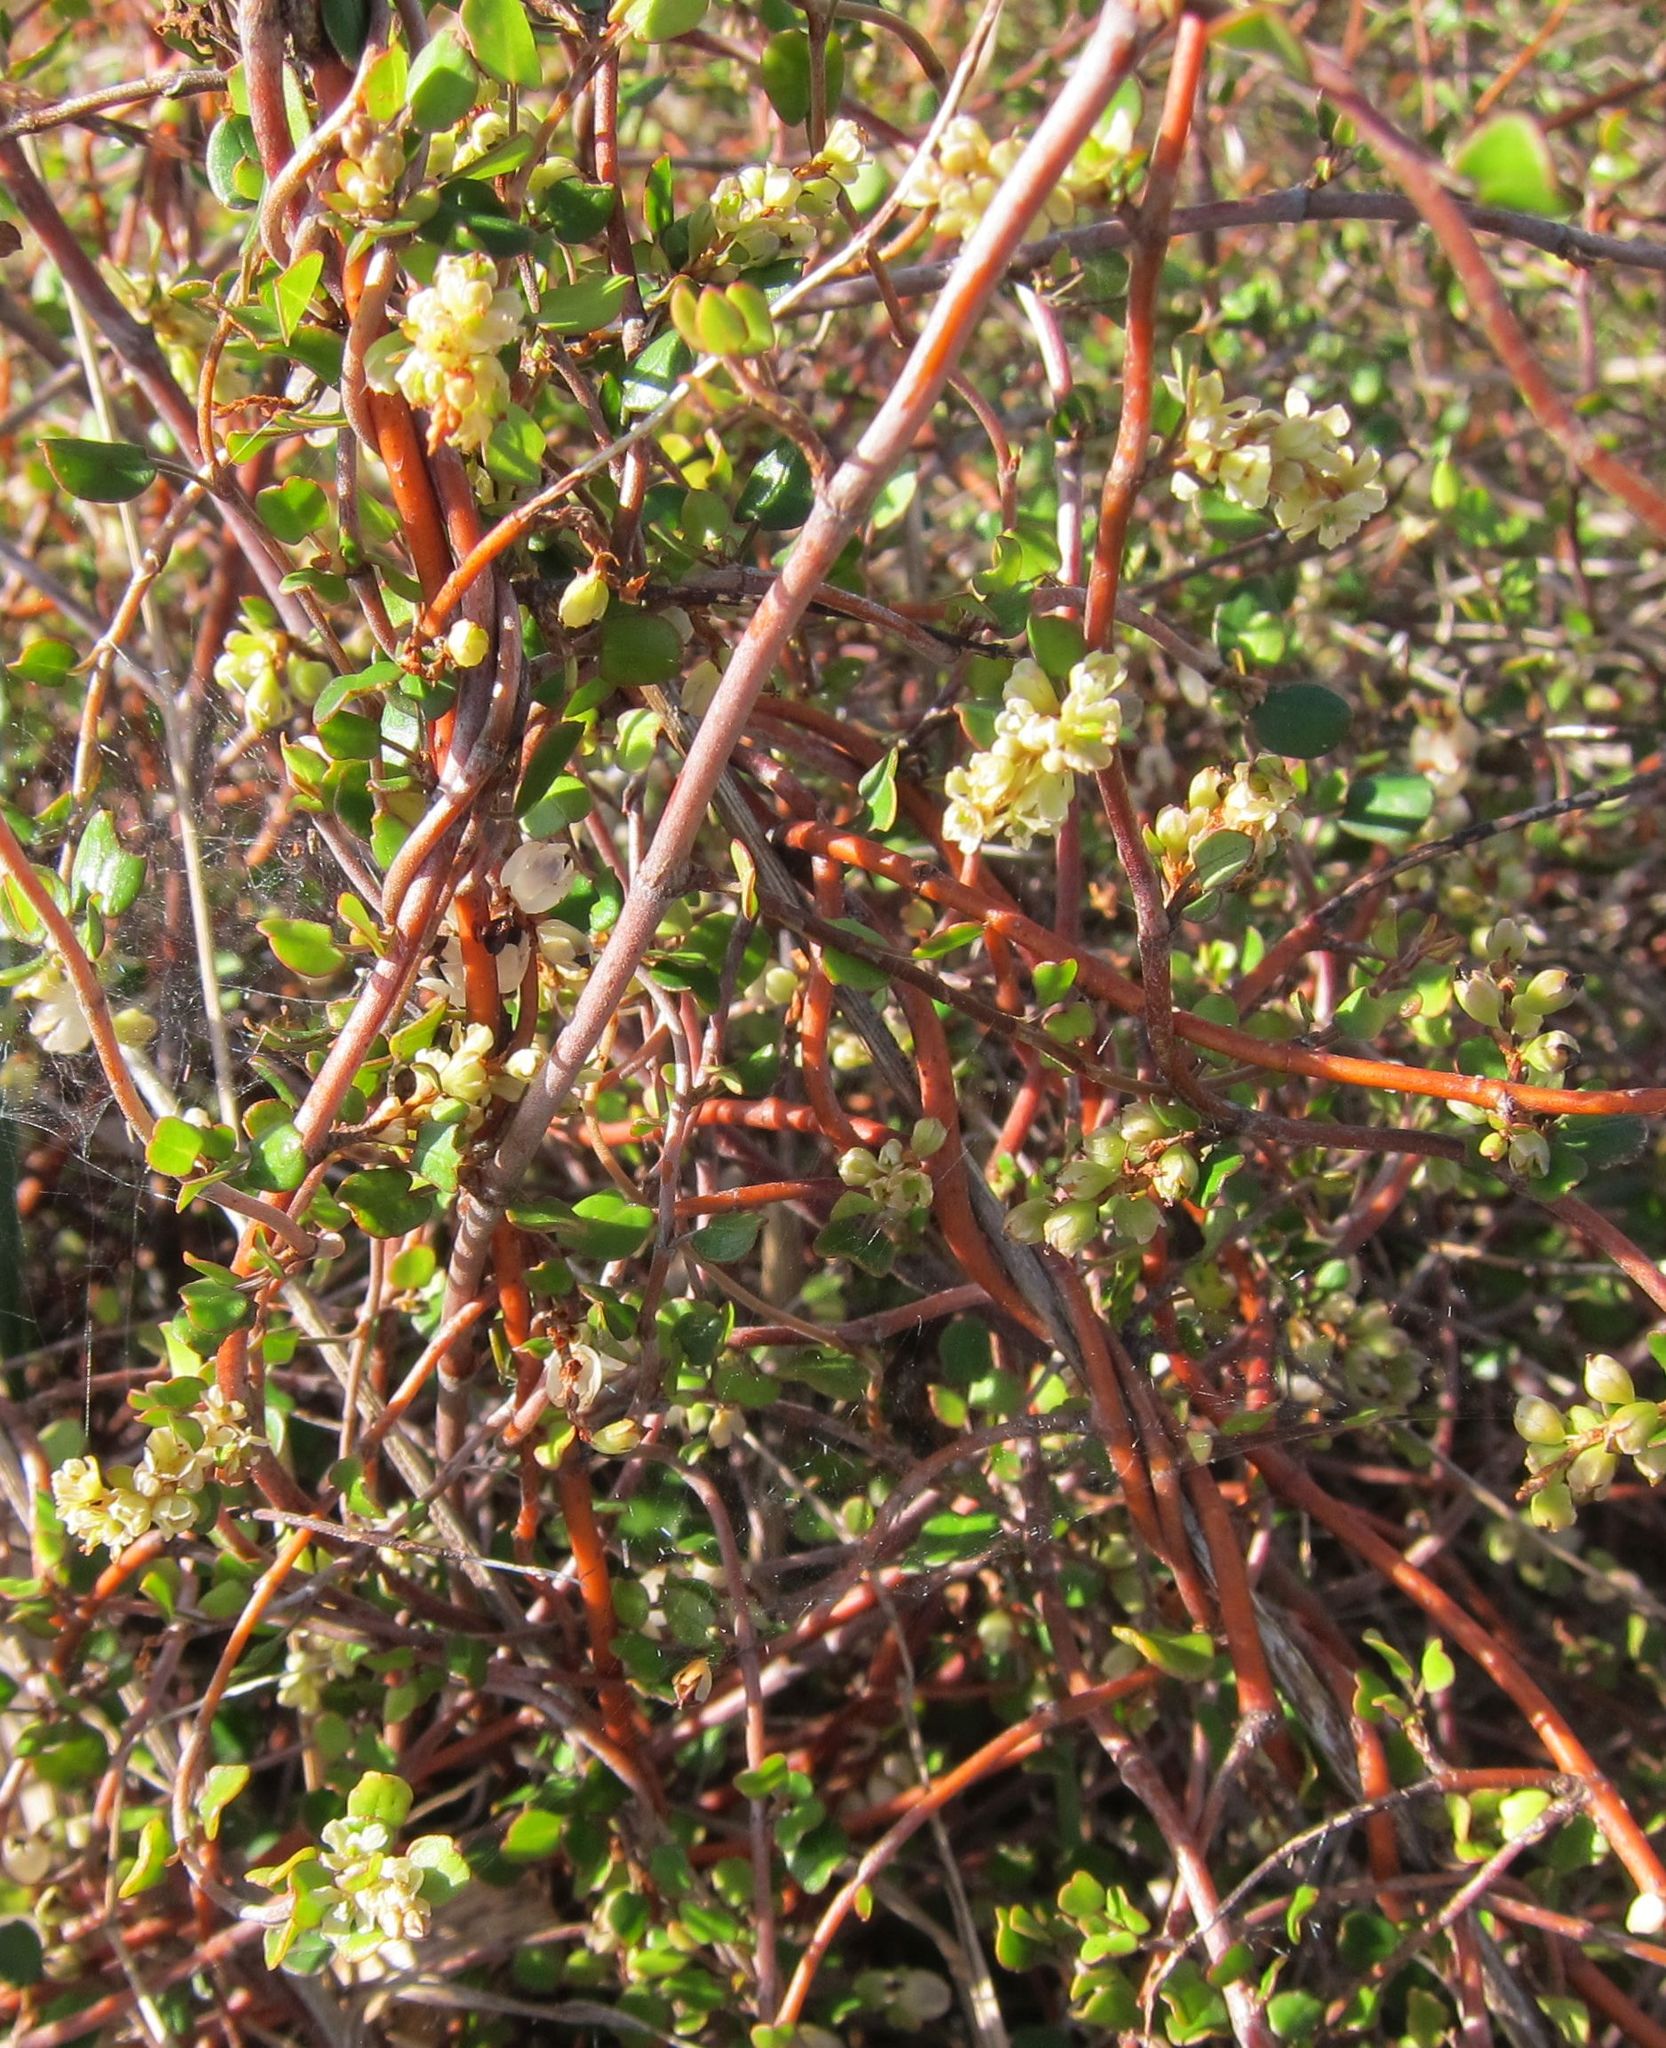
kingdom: Plantae
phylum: Tracheophyta
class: Magnoliopsida
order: Caryophyllales
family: Polygonaceae
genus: Muehlenbeckia
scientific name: Muehlenbeckia complexa
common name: Wireplant
